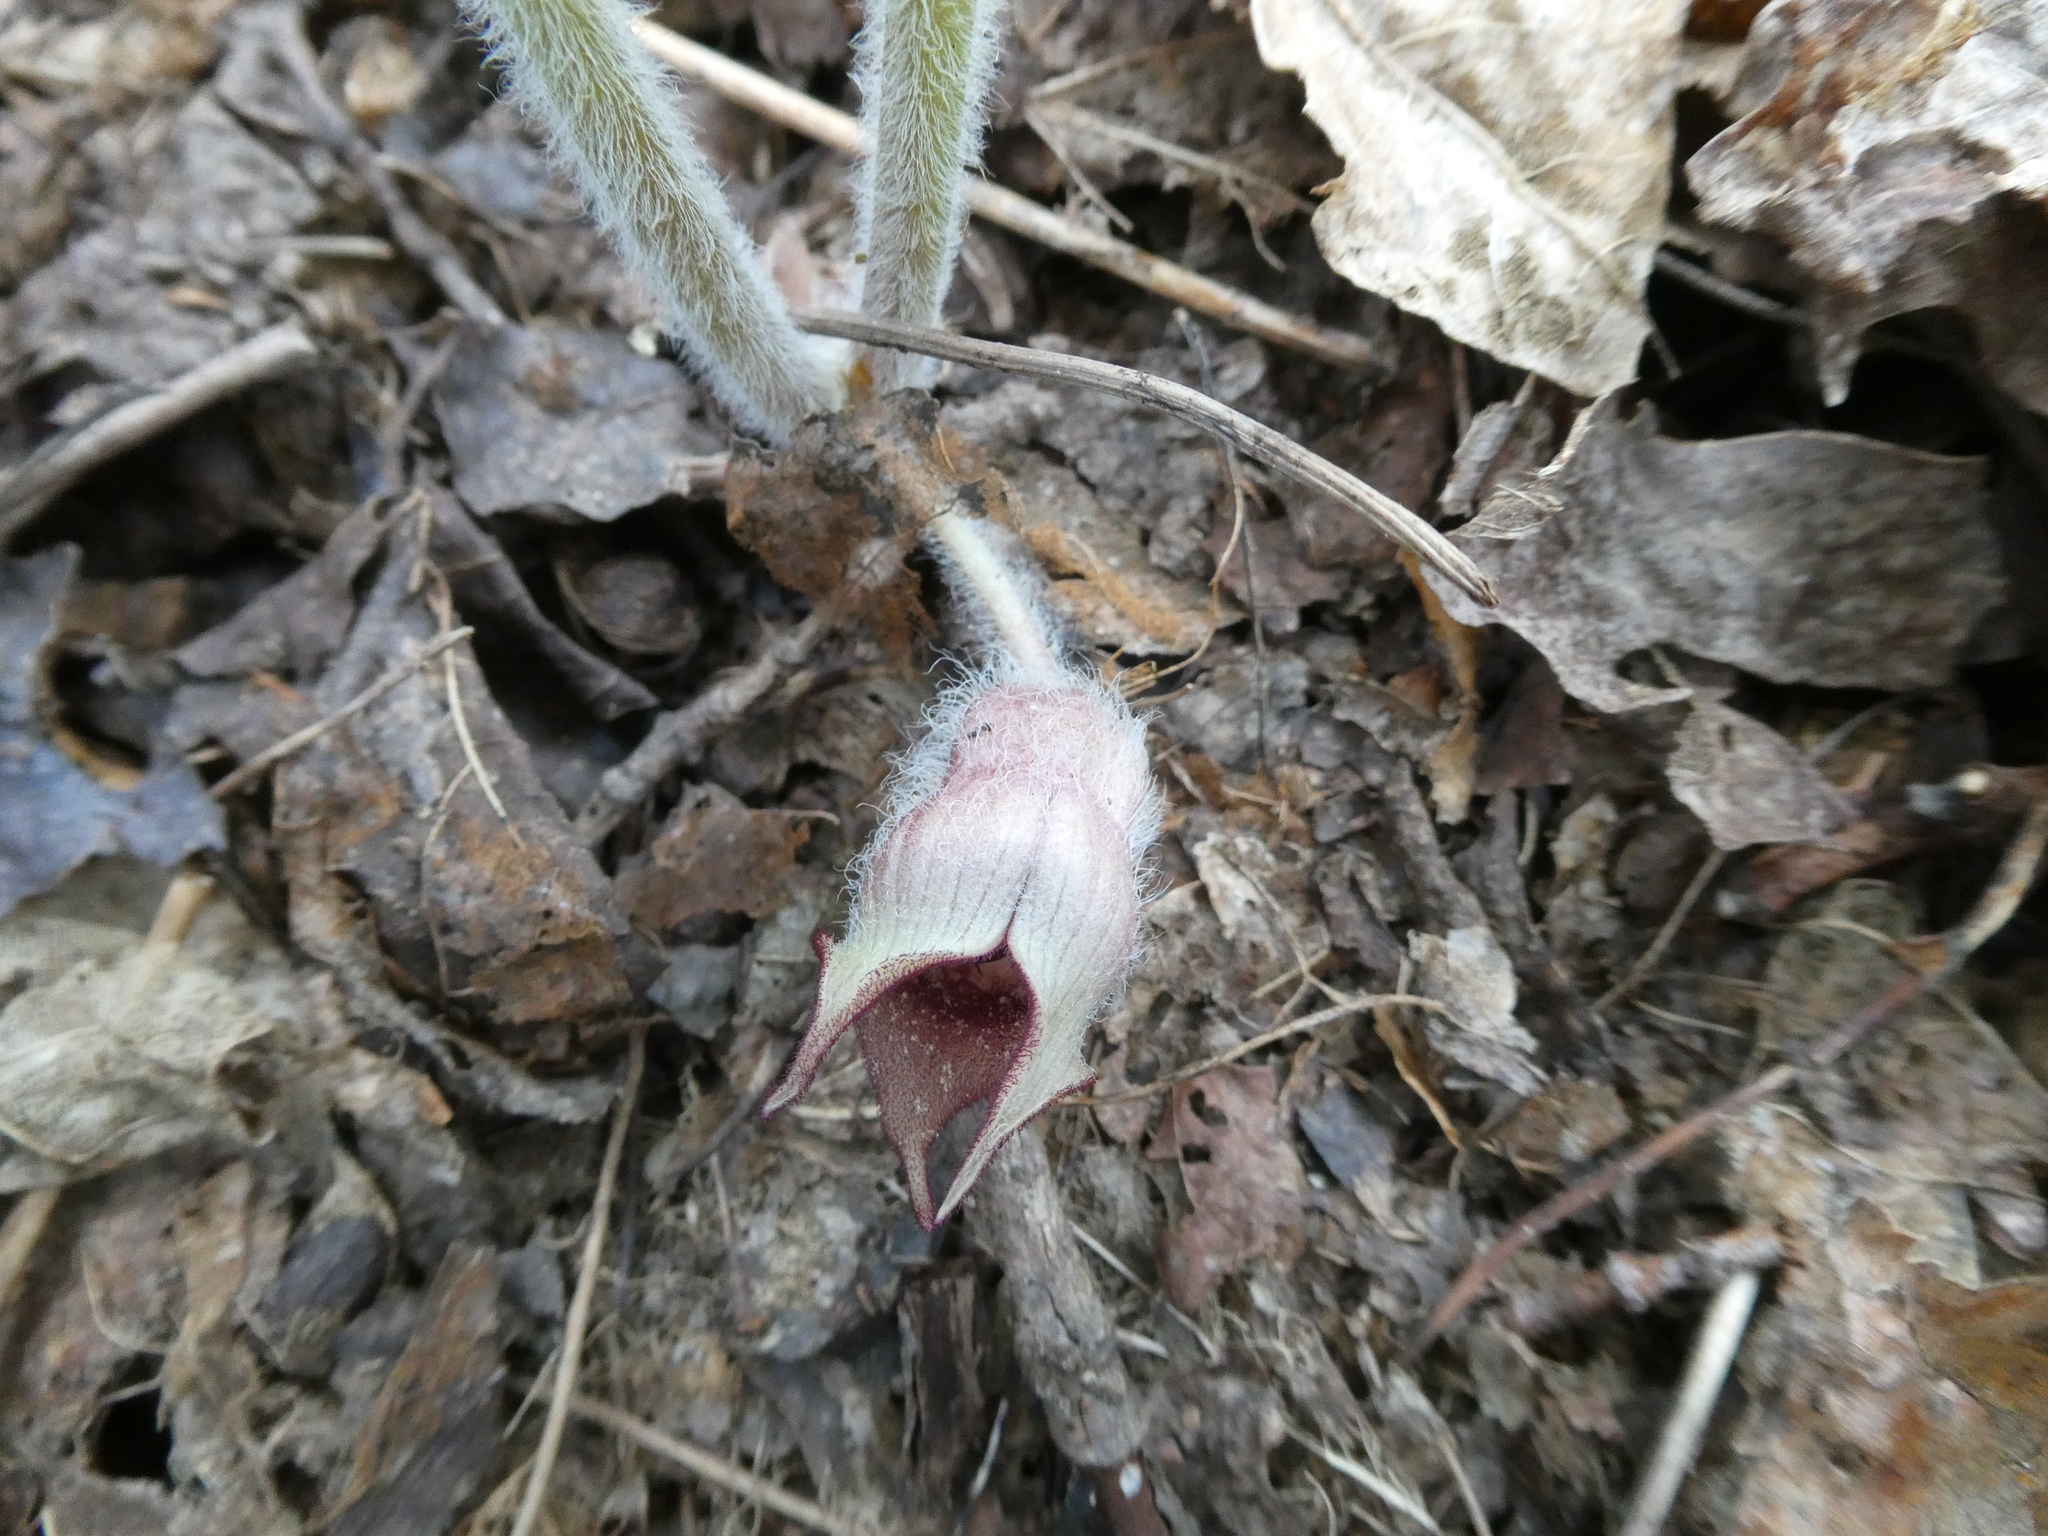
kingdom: Plantae
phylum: Tracheophyta
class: Magnoliopsida
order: Piperales
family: Aristolochiaceae
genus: Asarum
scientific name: Asarum canadense
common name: Wild ginger
